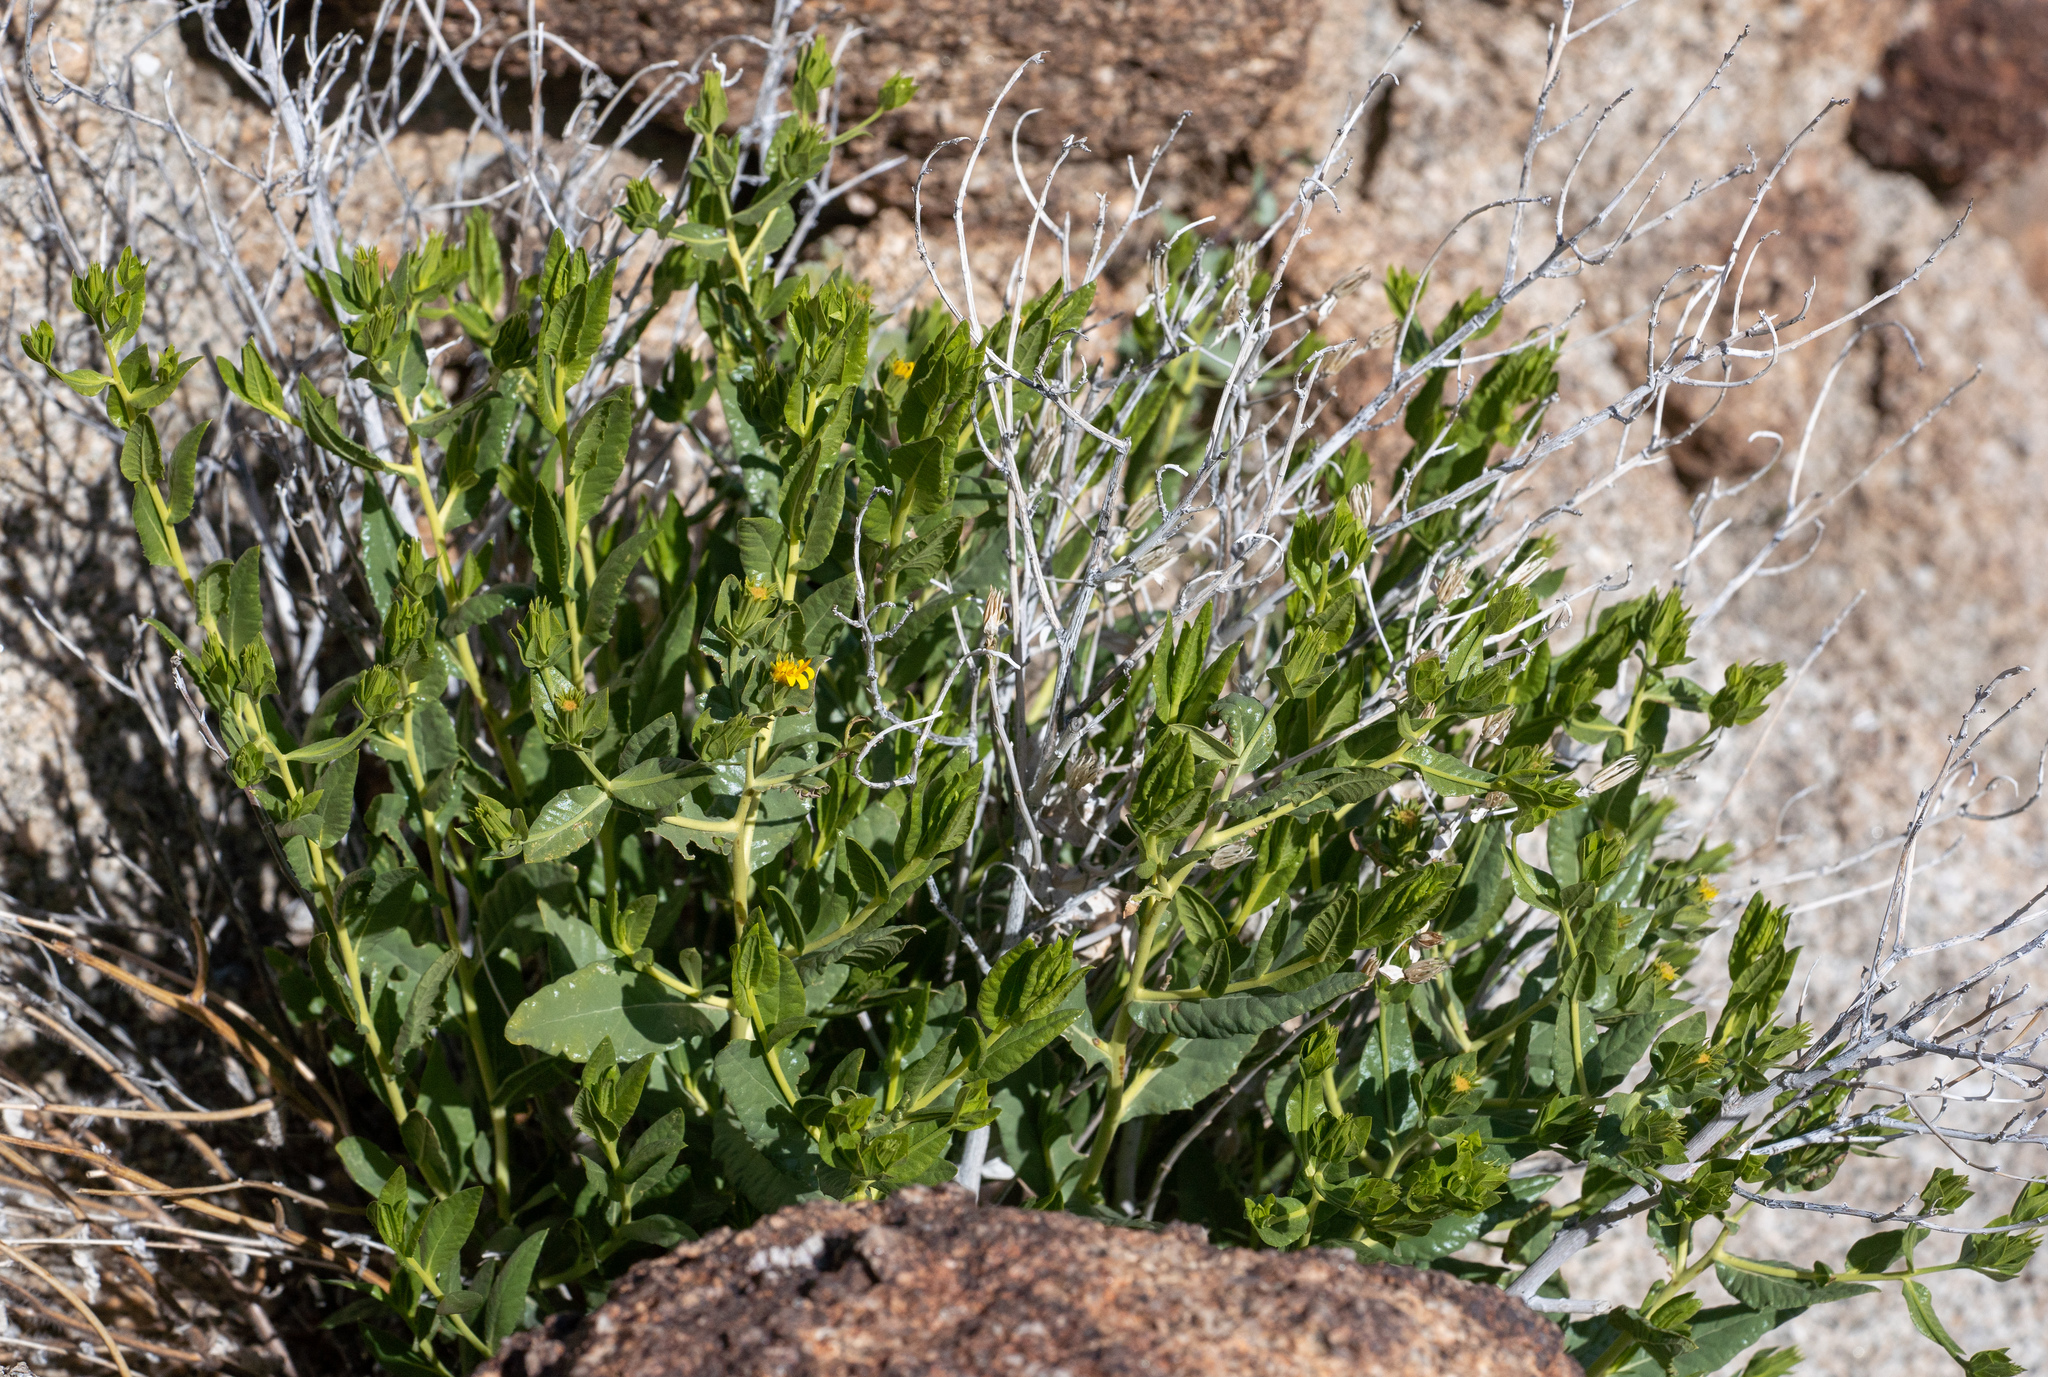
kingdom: Plantae
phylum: Tracheophyta
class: Magnoliopsida
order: Asterales
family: Asteraceae
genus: Trixis
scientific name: Trixis californica
